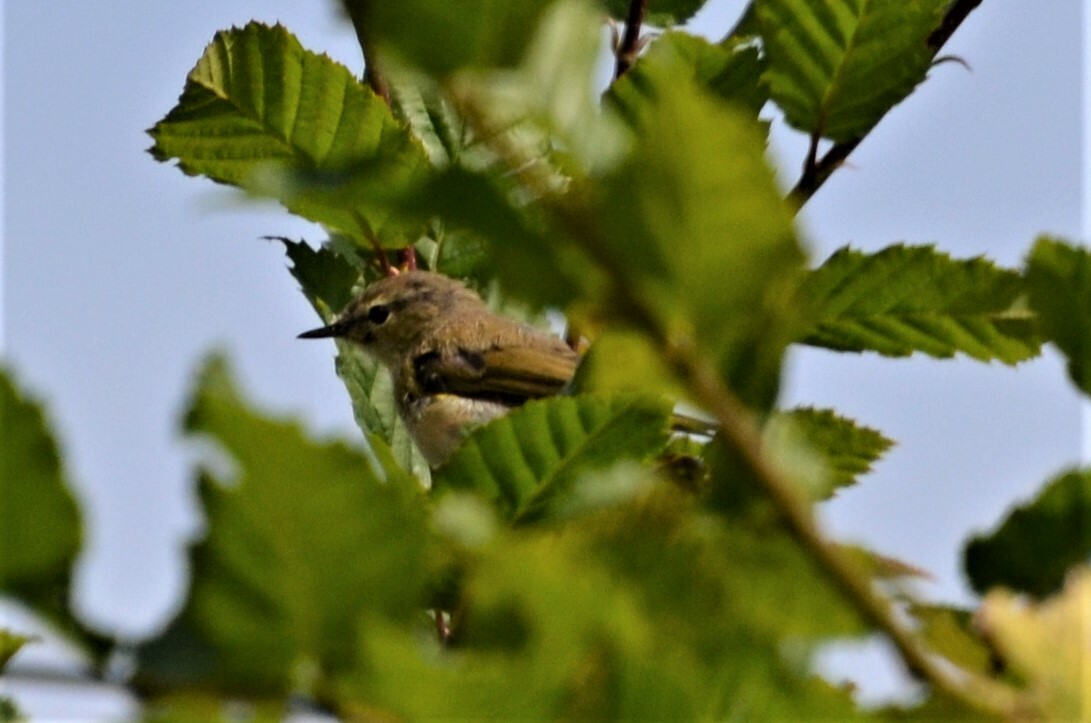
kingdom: Animalia
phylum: Chordata
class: Aves
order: Passeriformes
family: Phylloscopidae
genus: Phylloscopus
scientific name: Phylloscopus collybita
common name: Common chiffchaff
